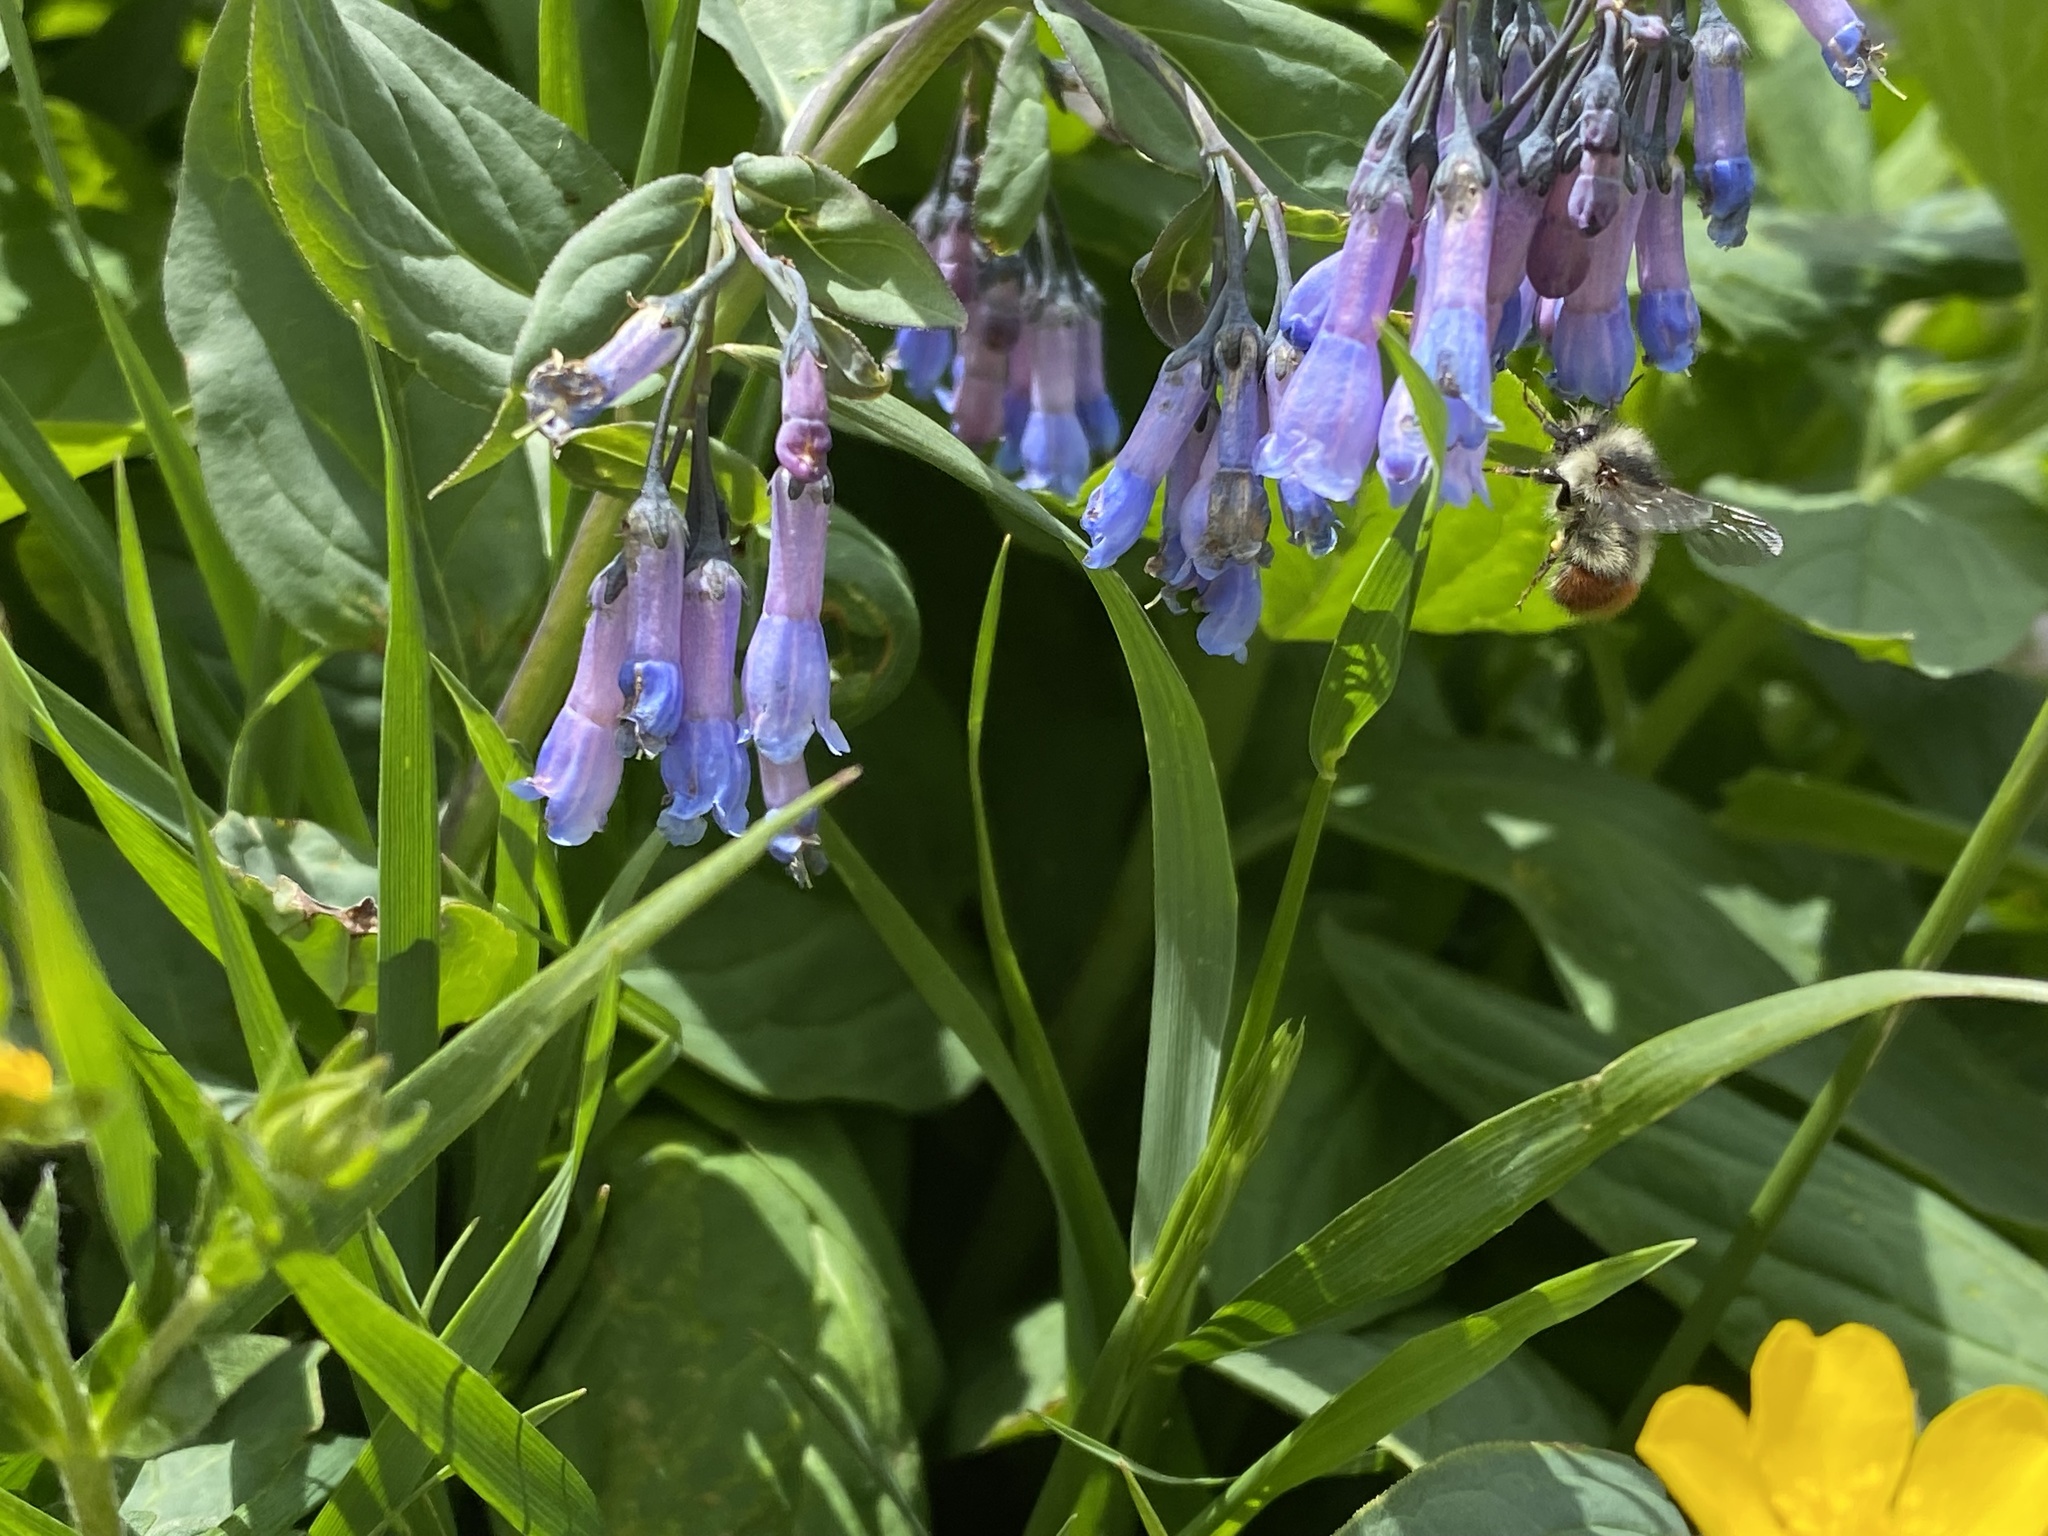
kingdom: Animalia
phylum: Arthropoda
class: Insecta
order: Hymenoptera
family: Apidae
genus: Bombus
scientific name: Bombus flavifrons
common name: Yellow head bumble bee
